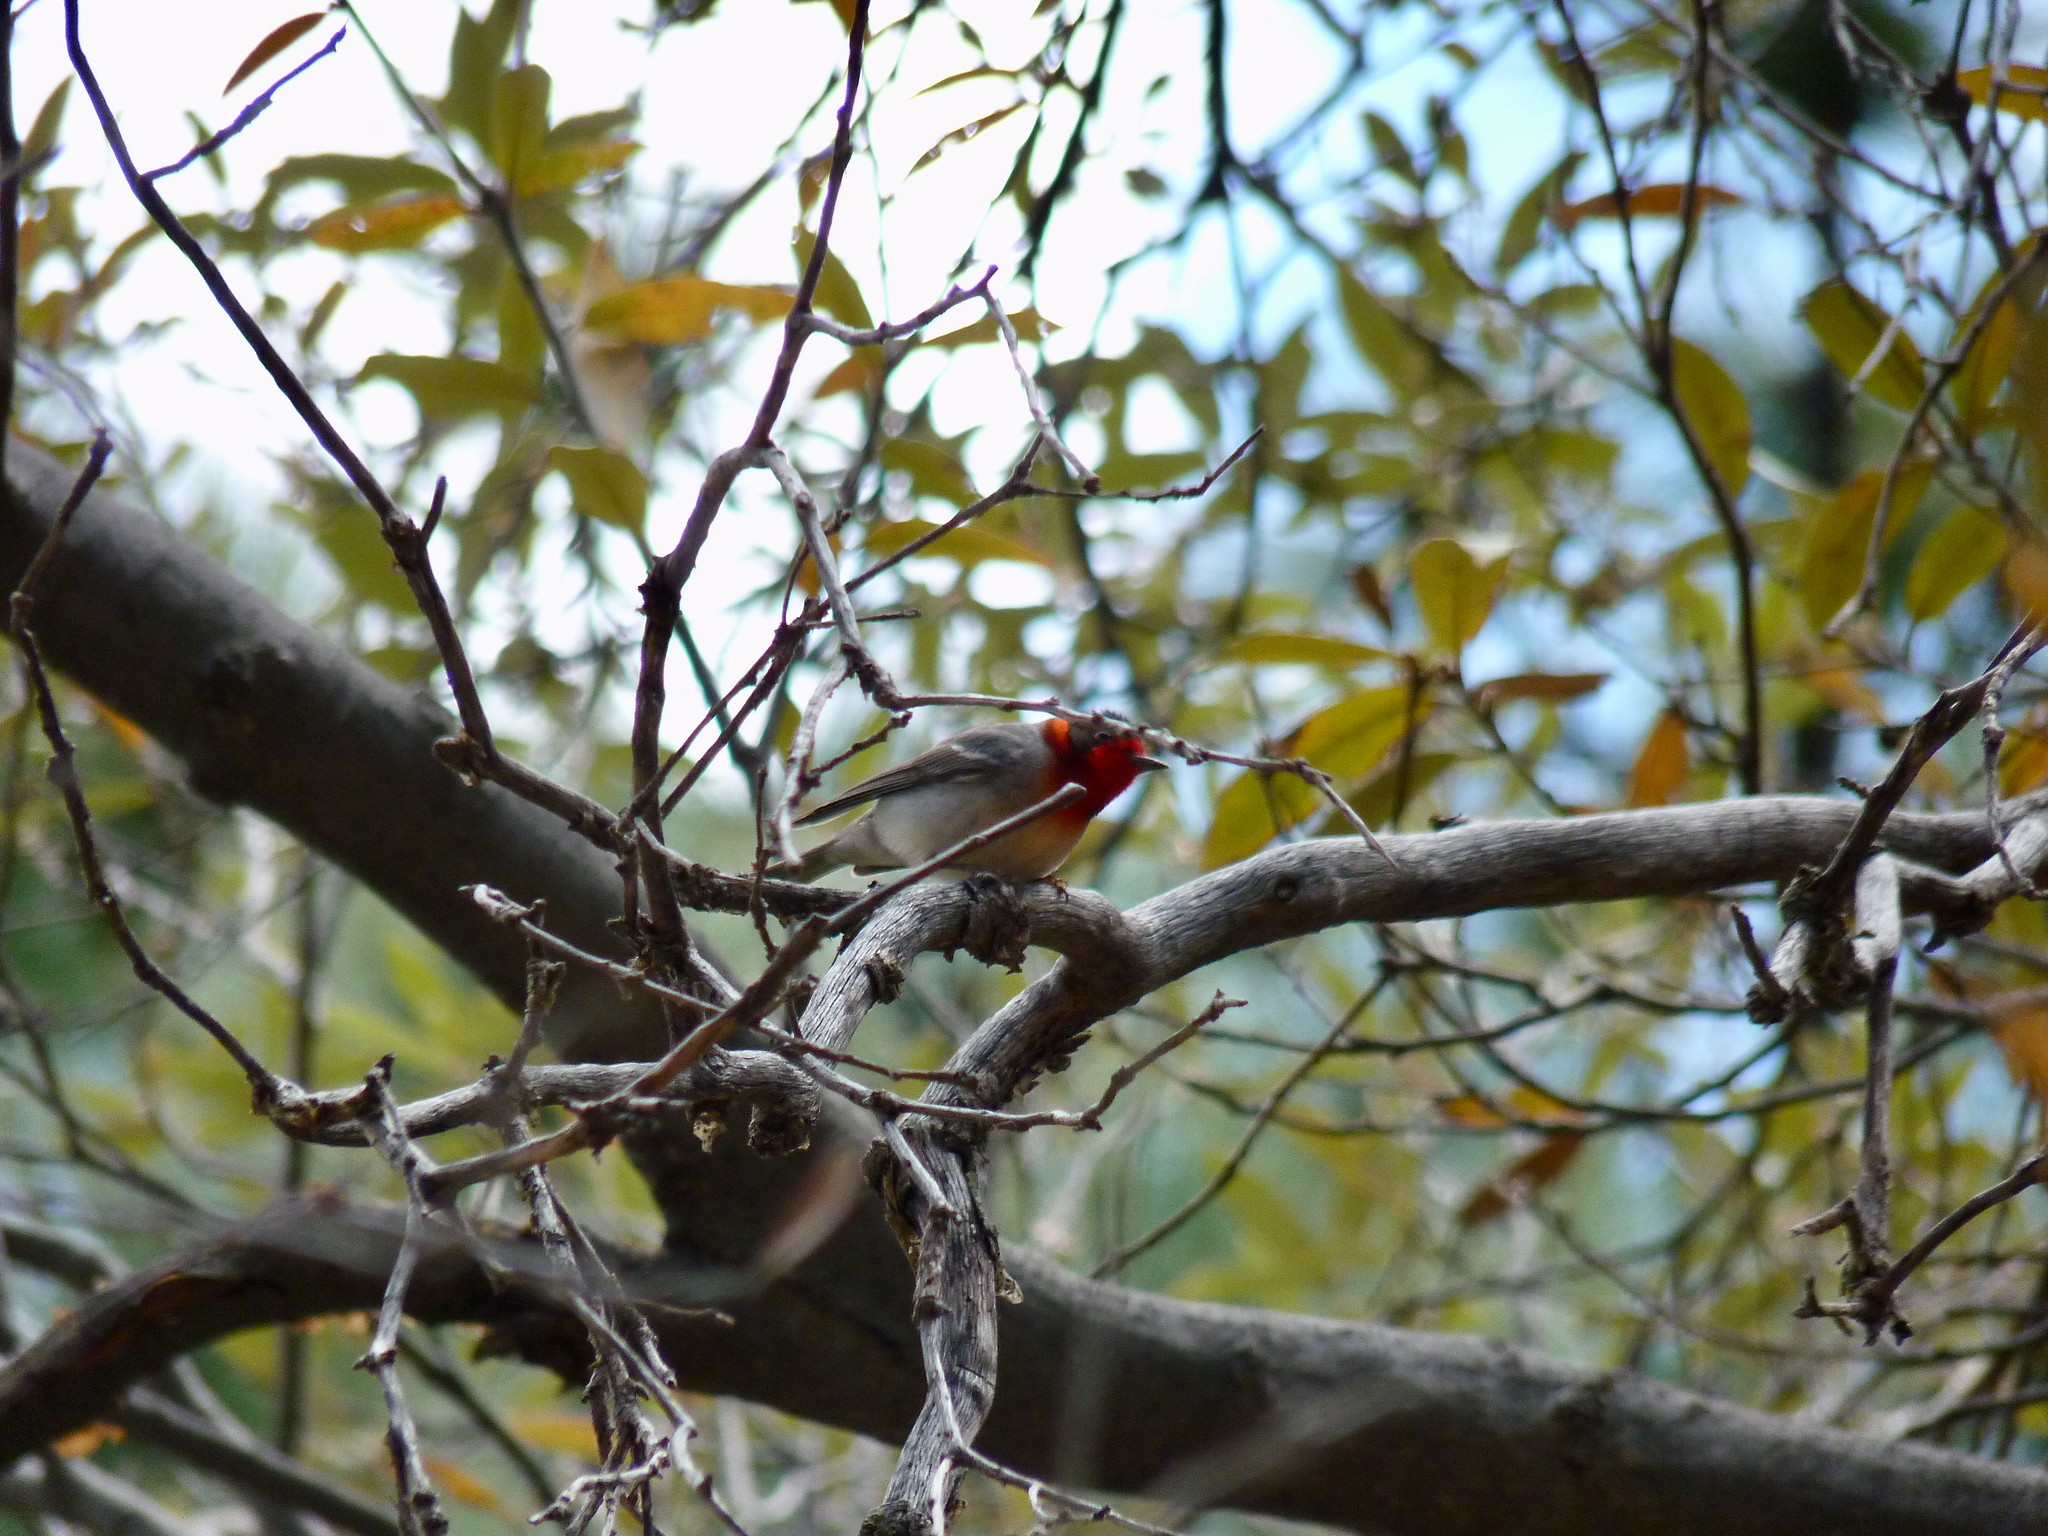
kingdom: Animalia
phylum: Chordata
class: Aves
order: Passeriformes
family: Parulidae
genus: Cardellina
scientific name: Cardellina rubrifrons
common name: Red-faced warbler
